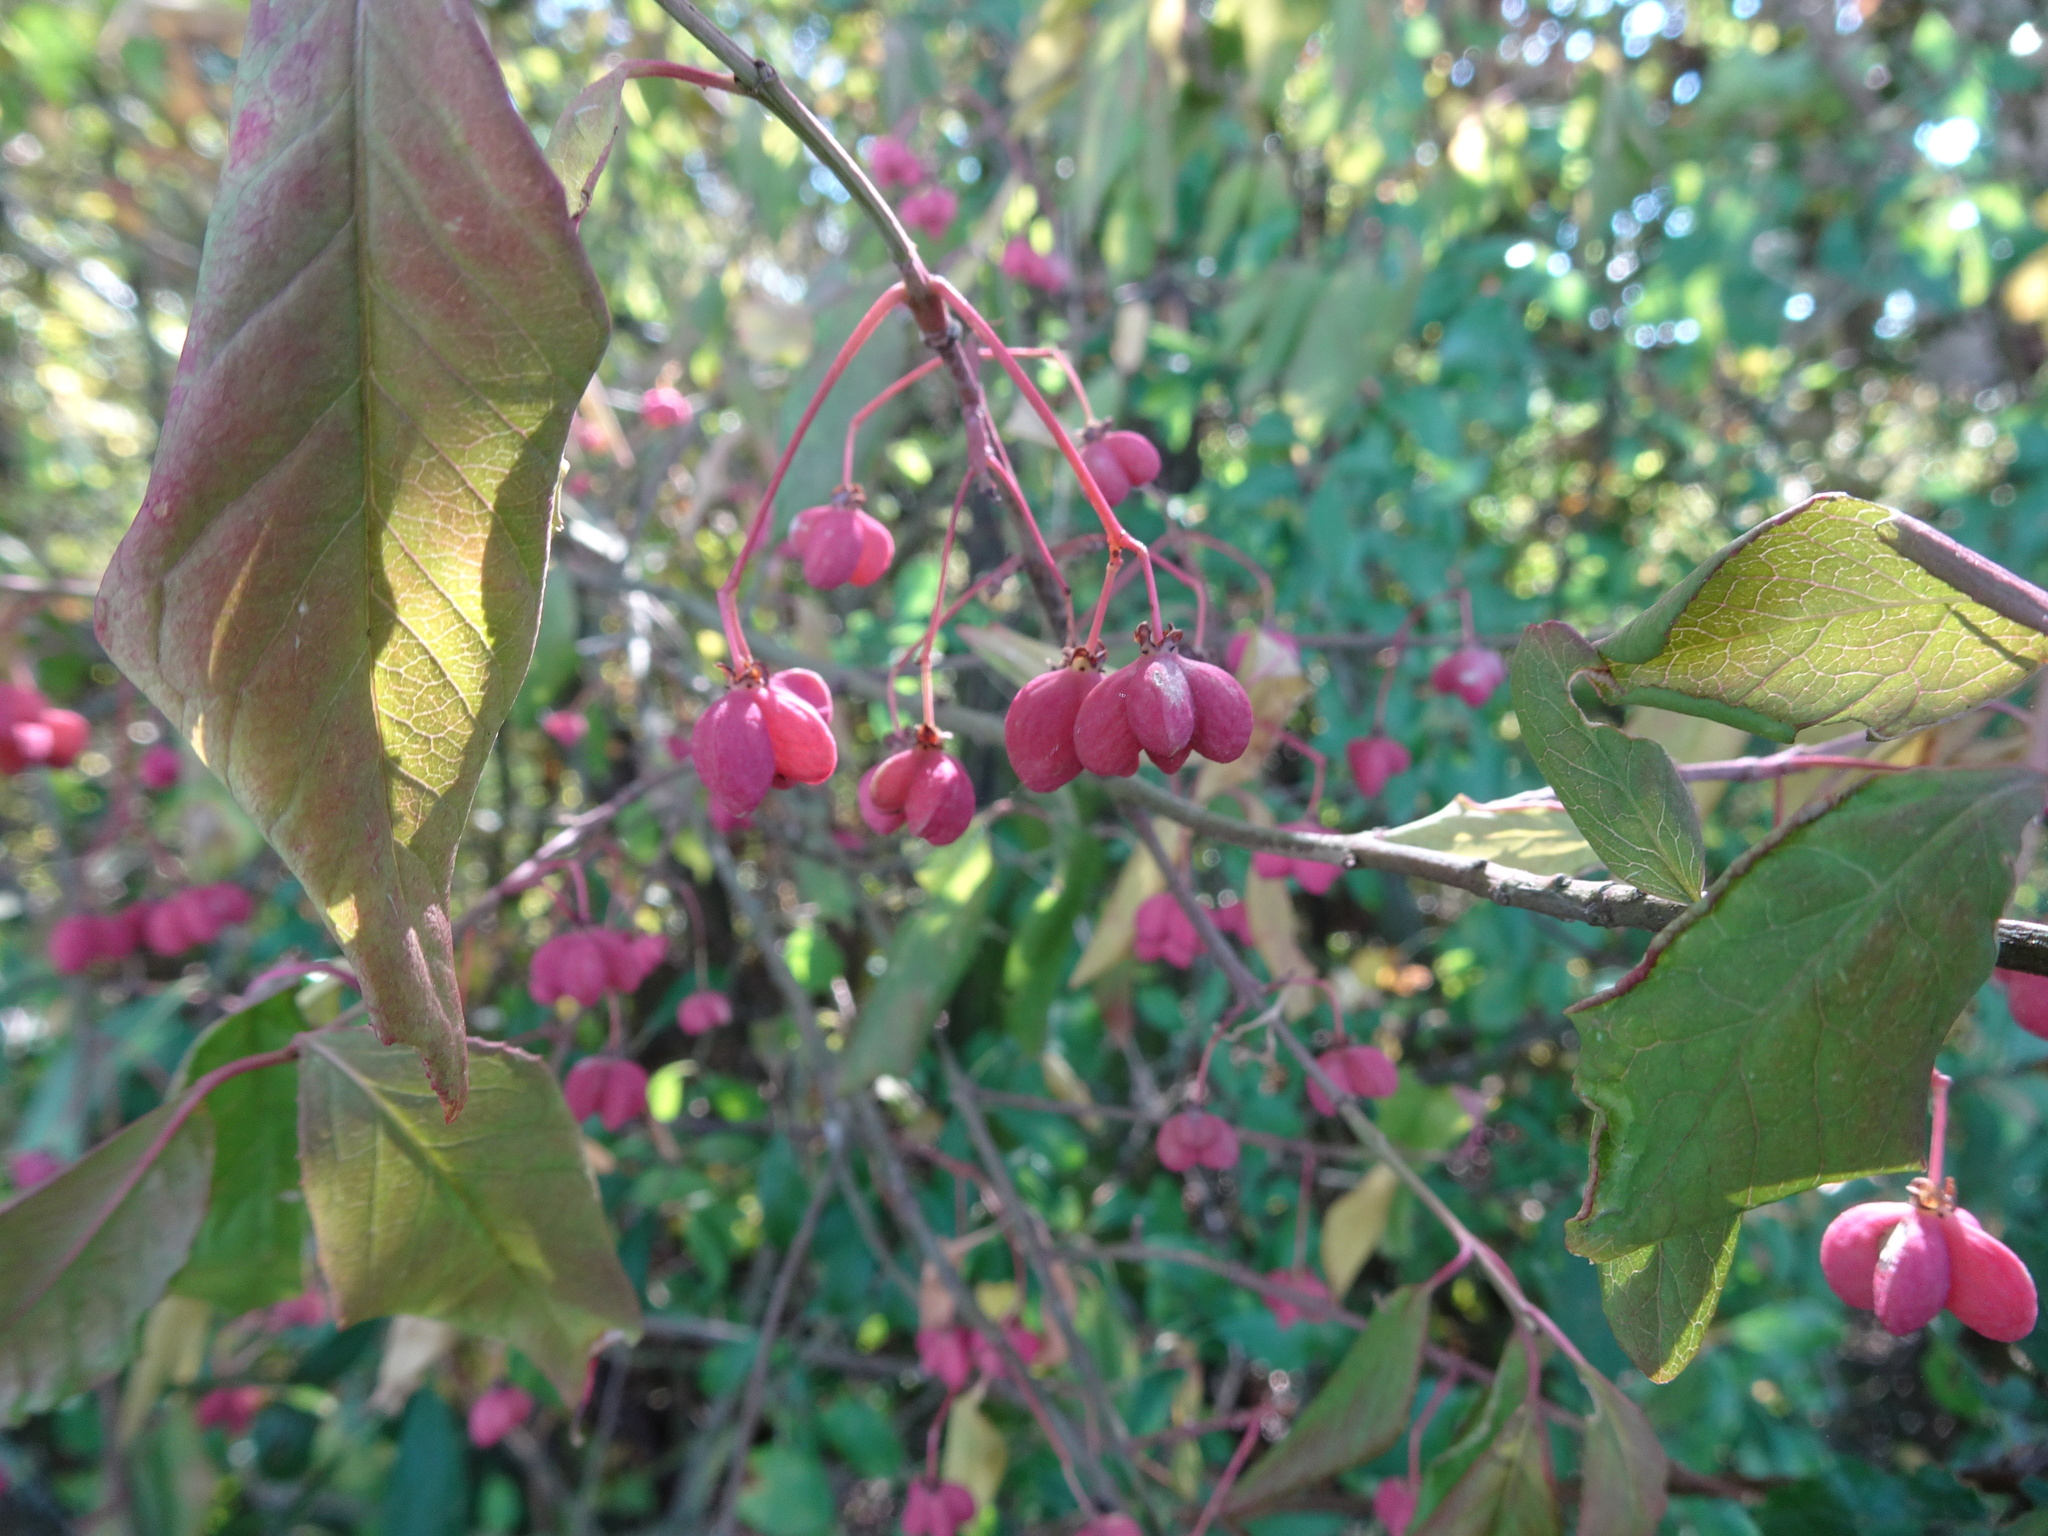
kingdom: Plantae
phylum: Tracheophyta
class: Magnoliopsida
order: Celastrales
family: Celastraceae
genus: Euonymus
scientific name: Euonymus europaeus
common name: Spindle
